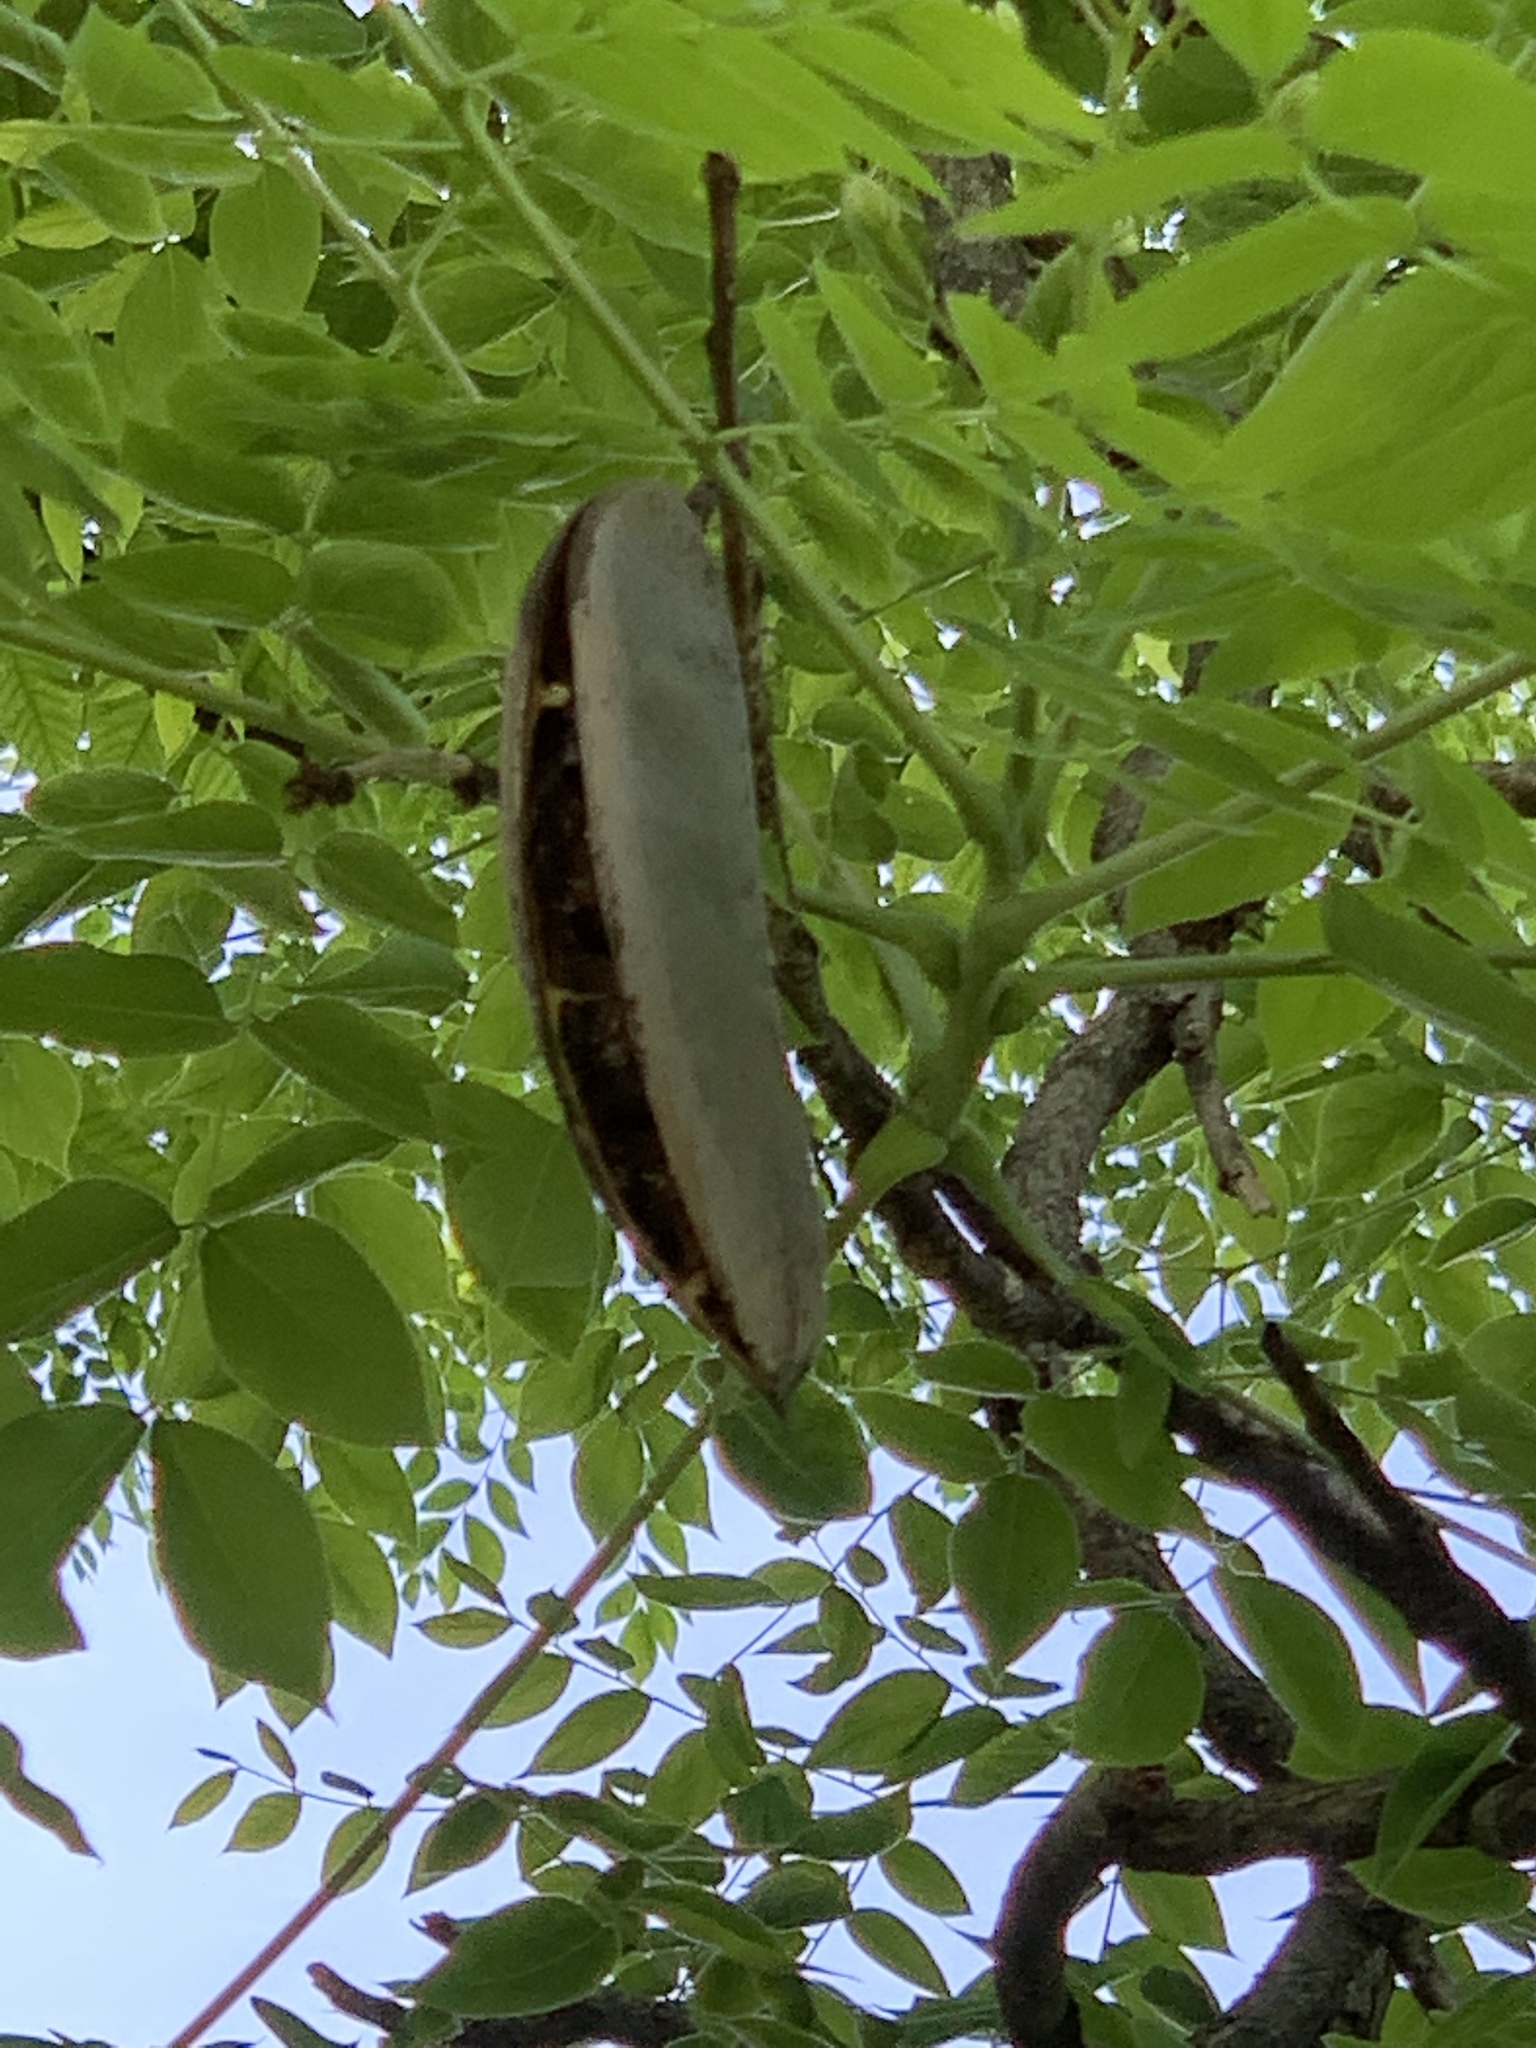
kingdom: Plantae
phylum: Tracheophyta
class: Magnoliopsida
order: Fabales
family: Fabaceae
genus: Gymnocladus
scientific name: Gymnocladus dioicus
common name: Kentucky coffee-tree
